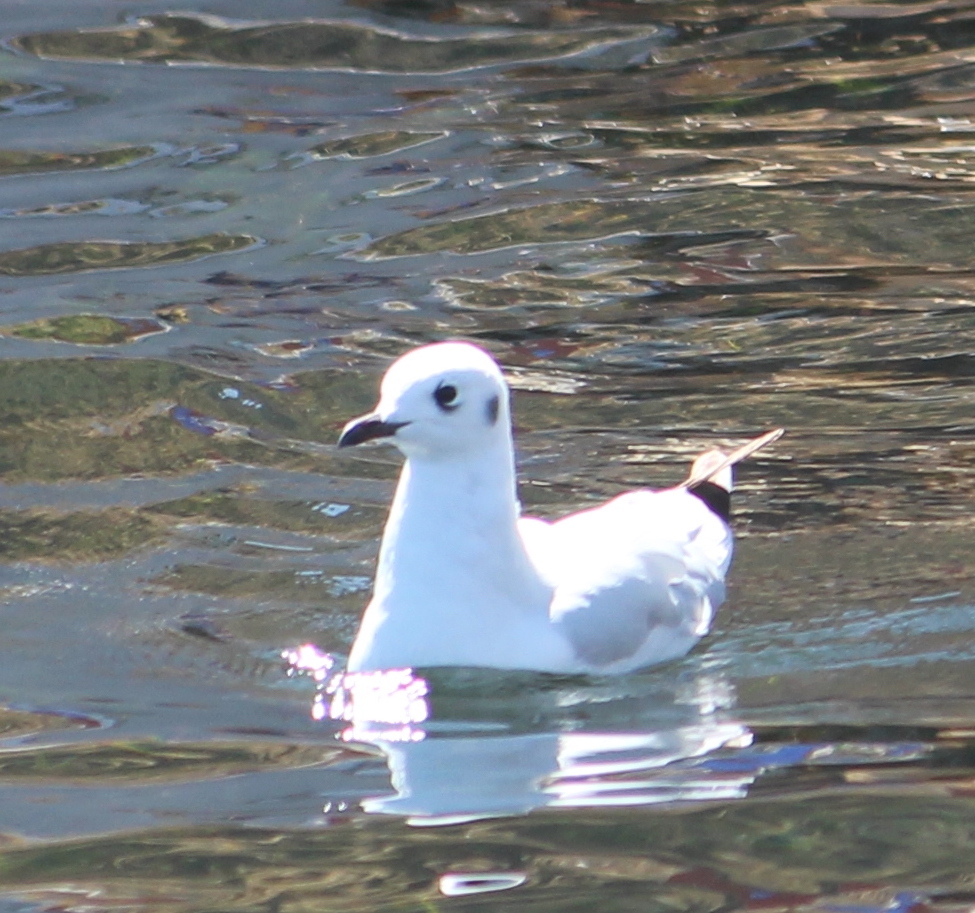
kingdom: Animalia
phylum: Chordata
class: Aves
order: Charadriiformes
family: Laridae
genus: Chroicocephalus
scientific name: Chroicocephalus serranus
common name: Andean gull
